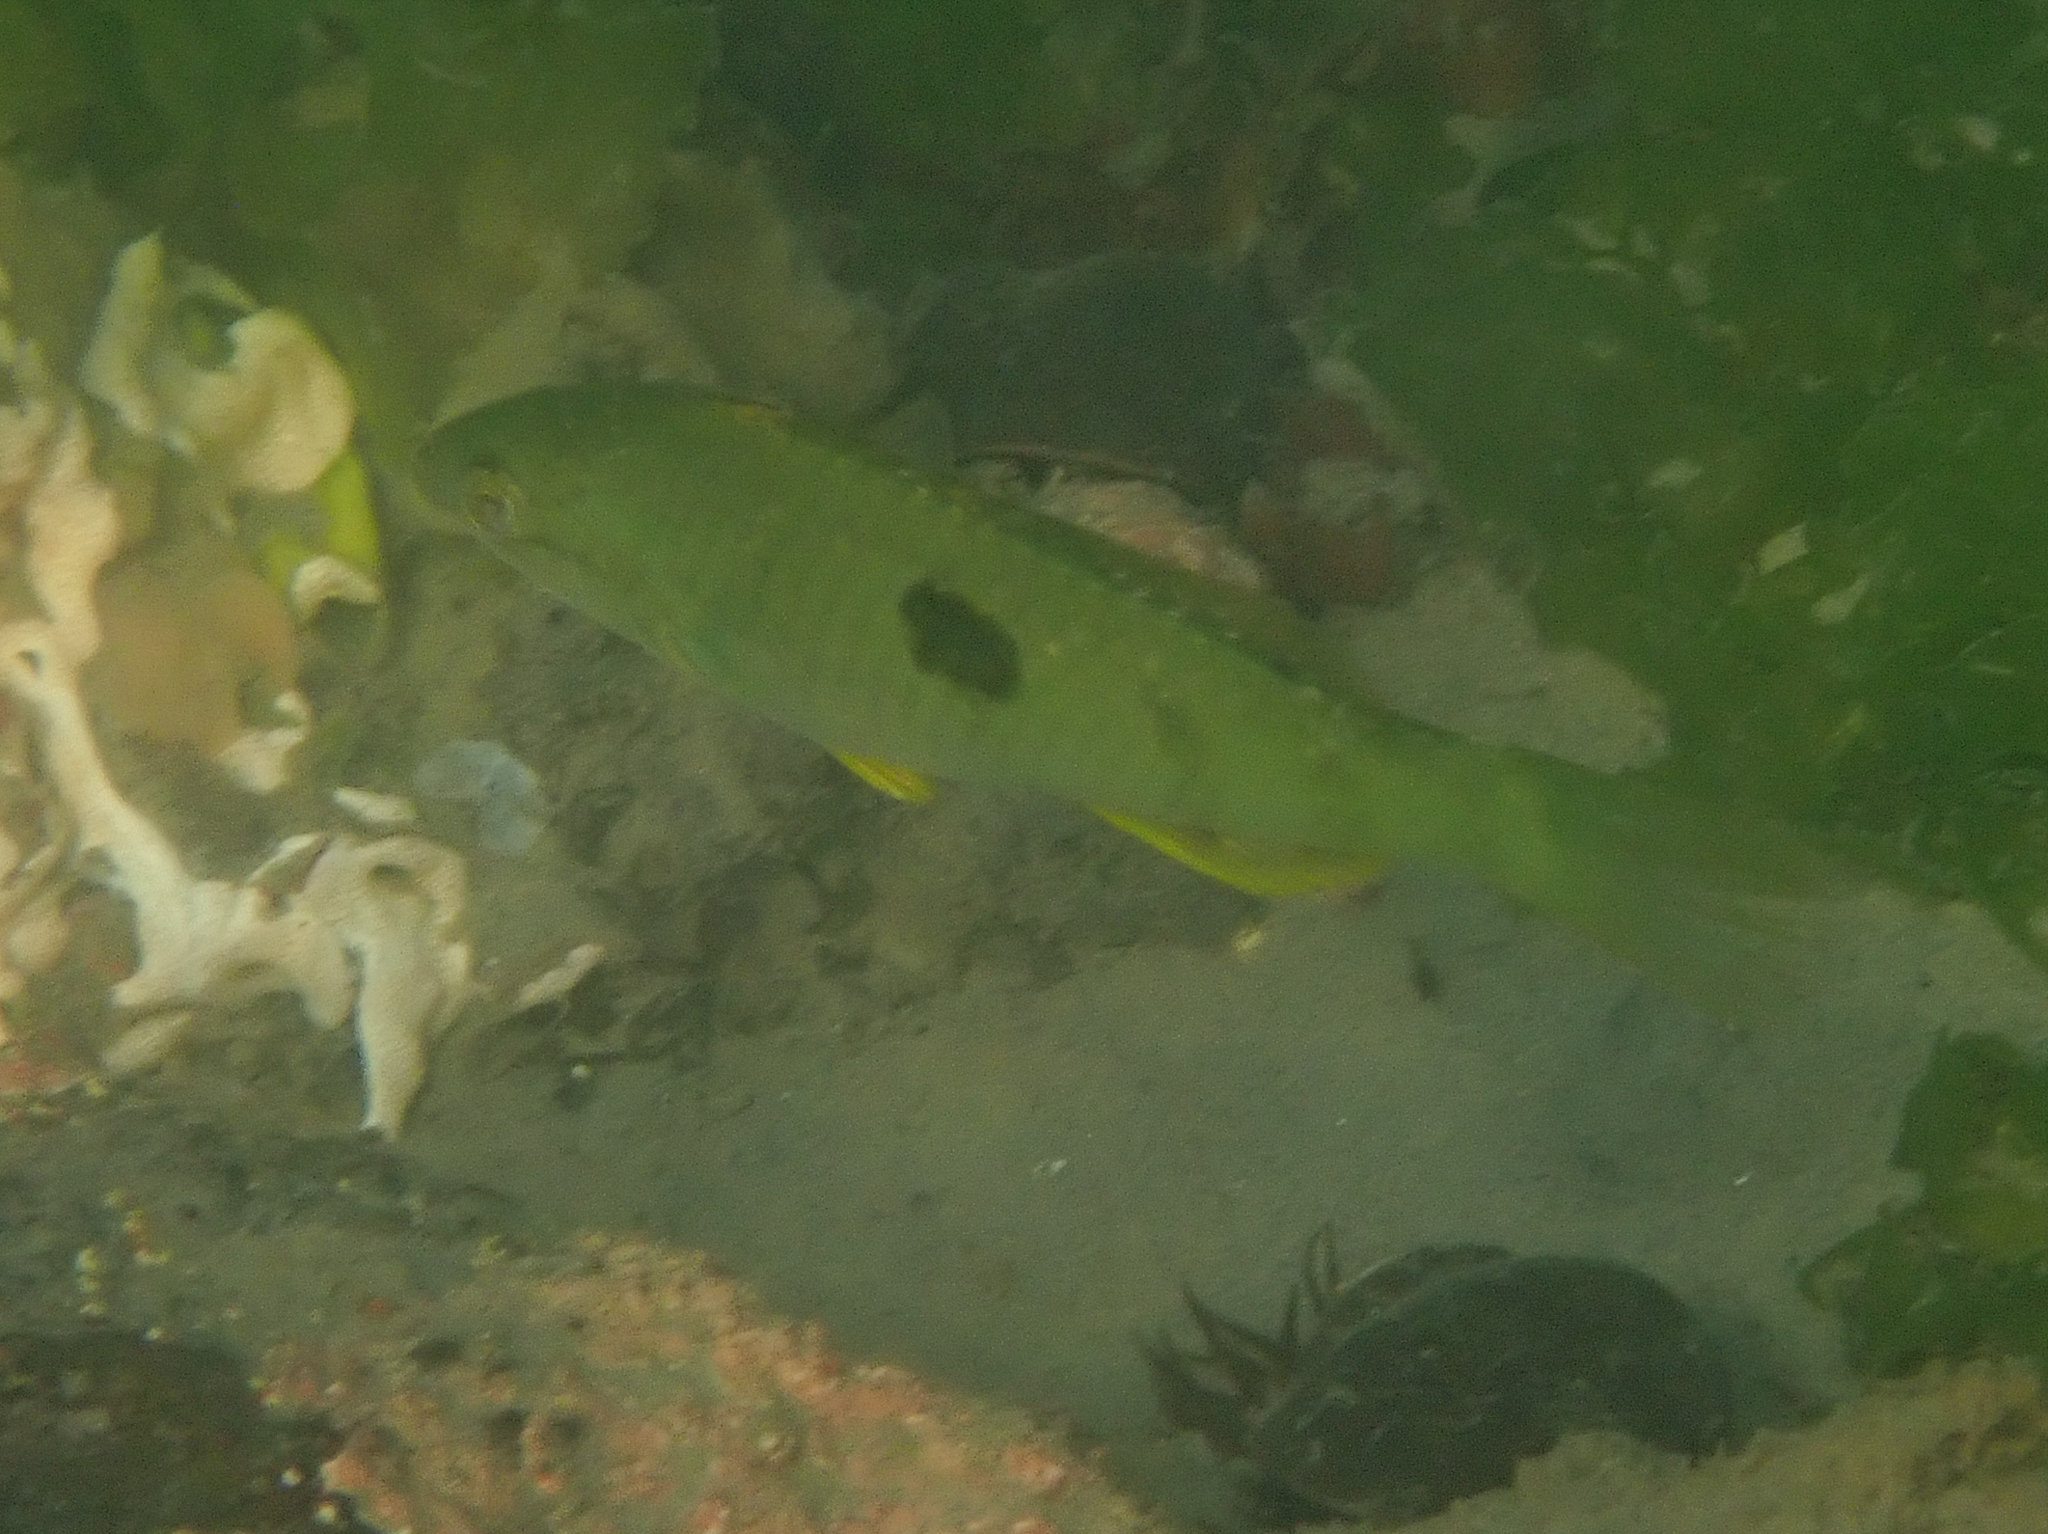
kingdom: Animalia
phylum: Chordata
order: Perciformes
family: Labridae
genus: Notolabrus
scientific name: Notolabrus celidotus
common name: Spotty
